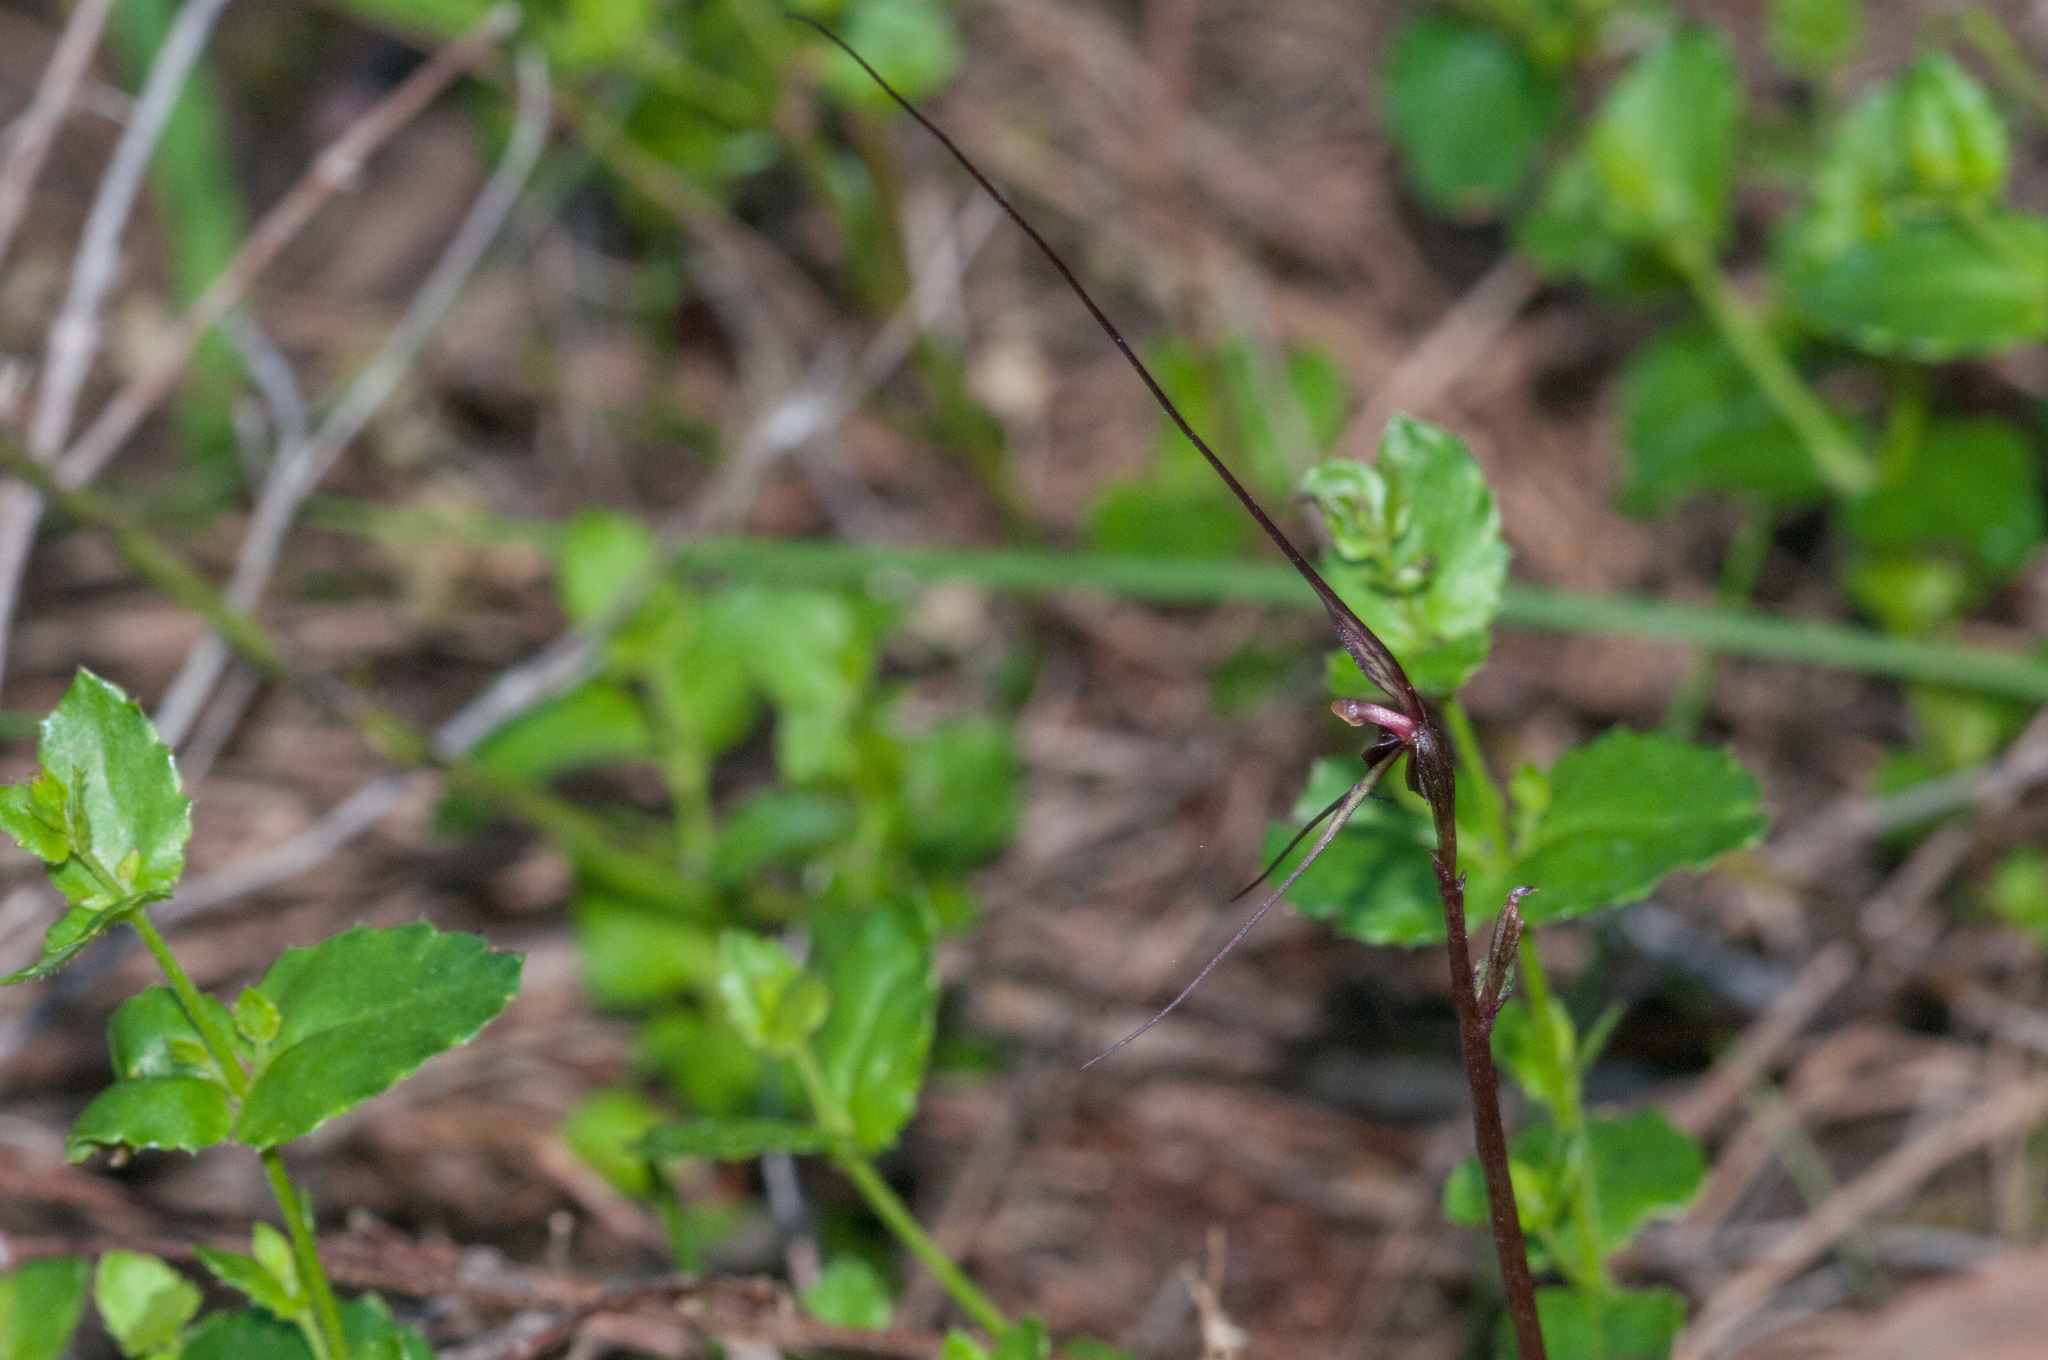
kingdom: Plantae
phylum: Tracheophyta
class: Liliopsida
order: Asparagales
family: Orchidaceae
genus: Acianthus
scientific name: Acianthus caudatus
